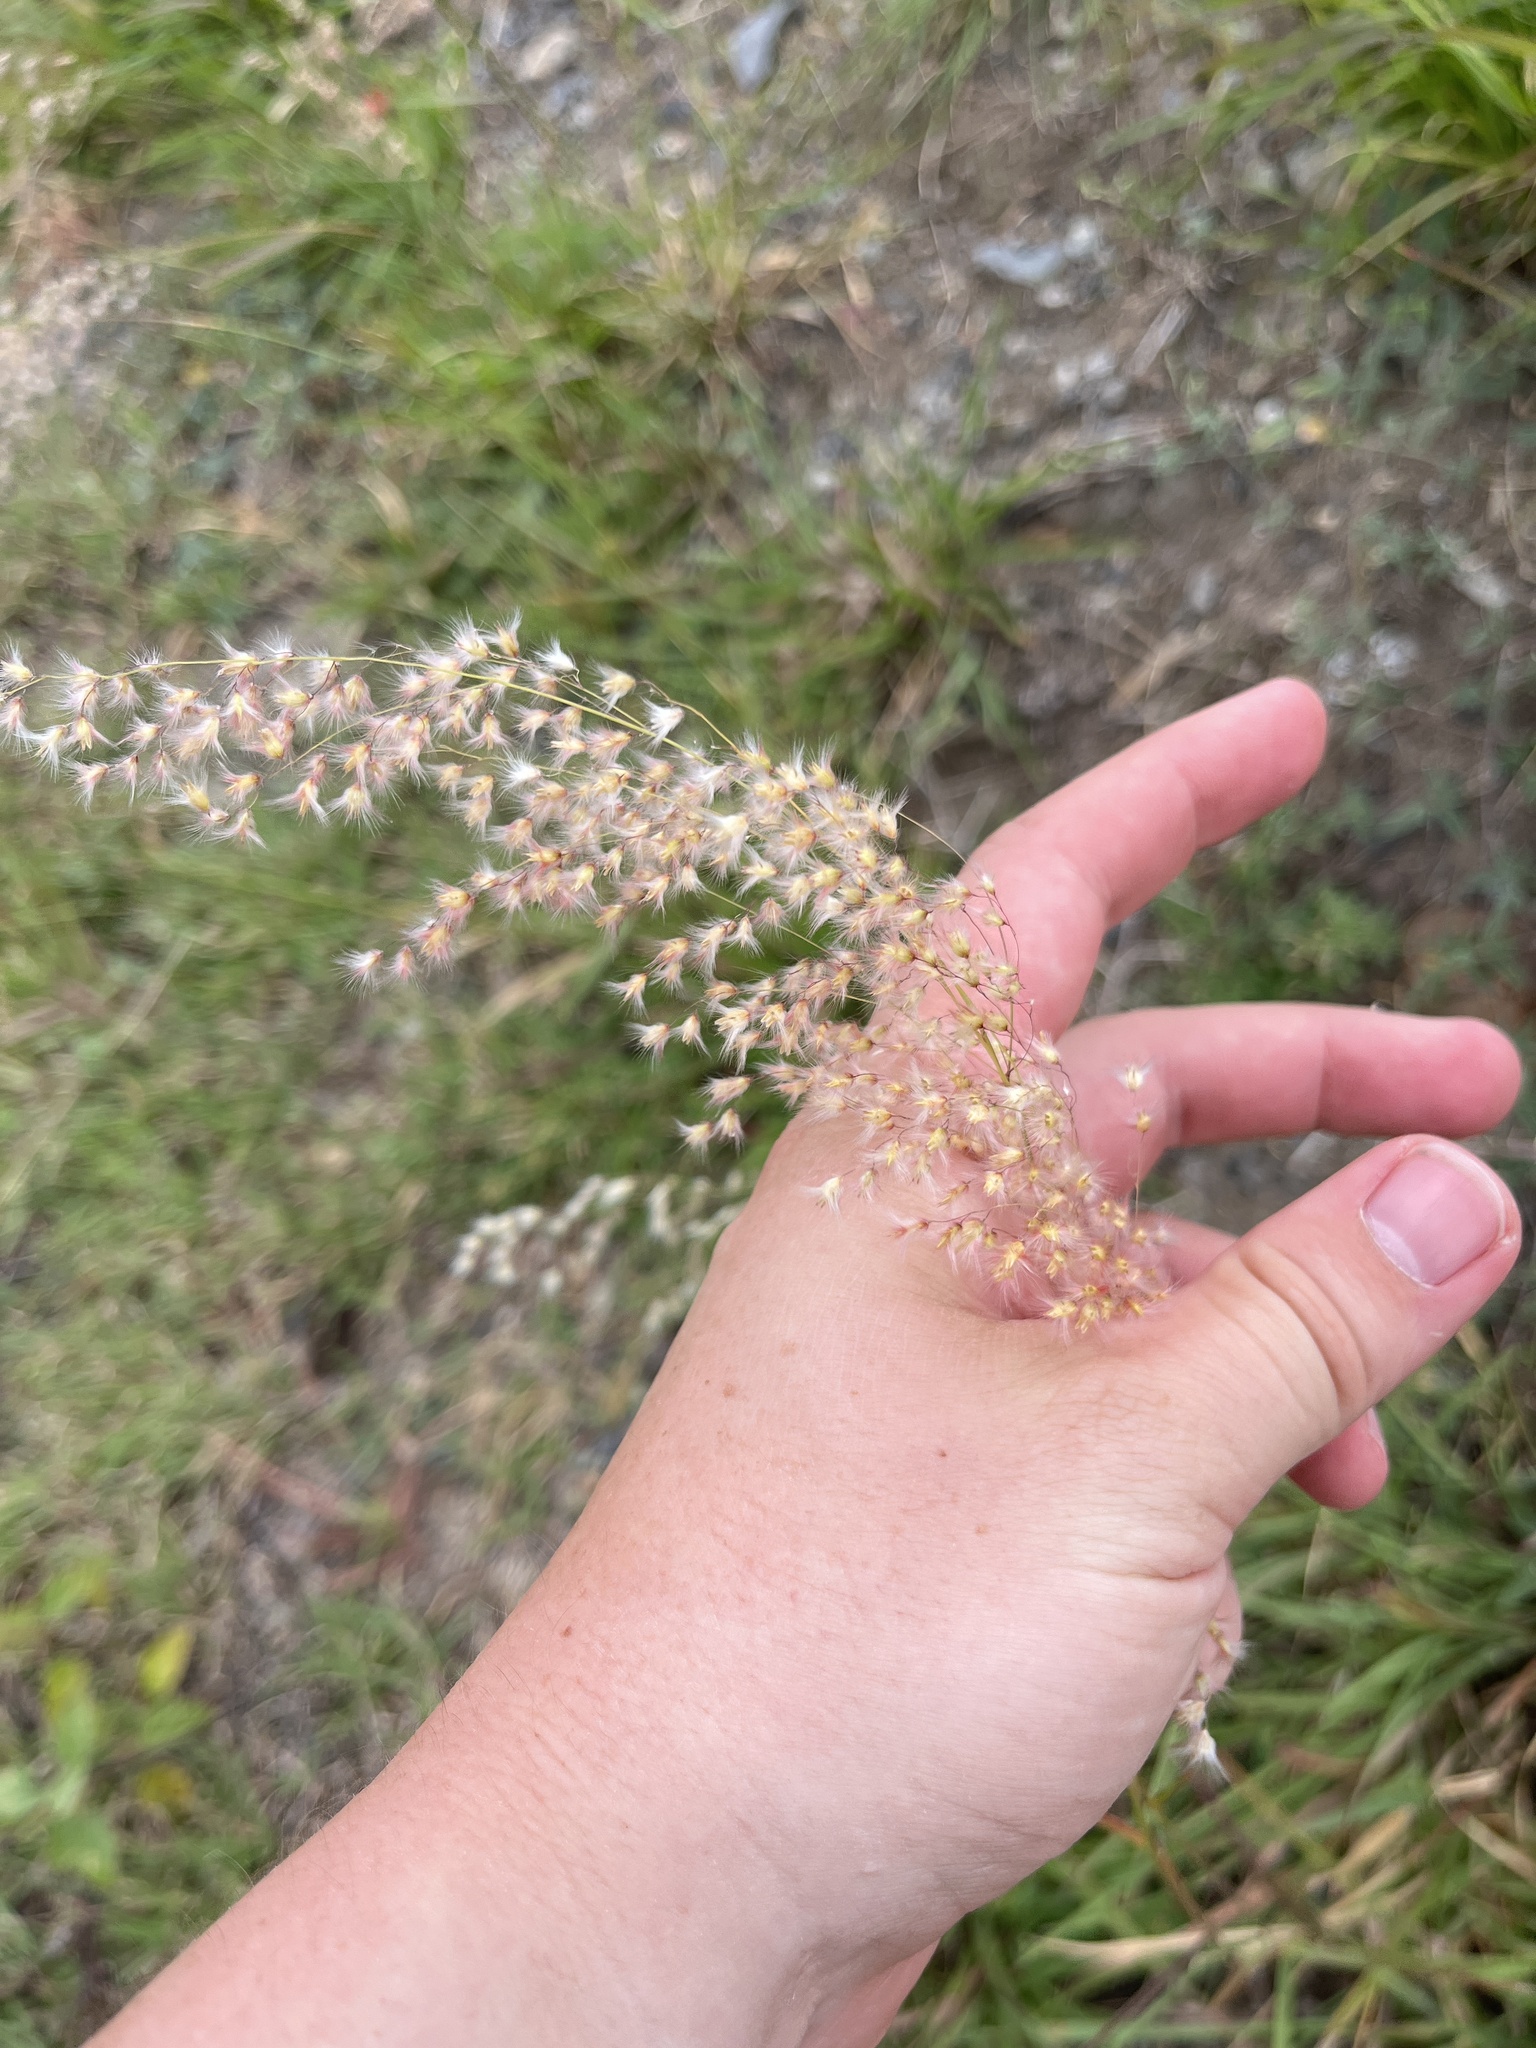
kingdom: Plantae
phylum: Tracheophyta
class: Liliopsida
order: Poales
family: Poaceae
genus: Melinis
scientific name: Melinis repens
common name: Rose natal grass
